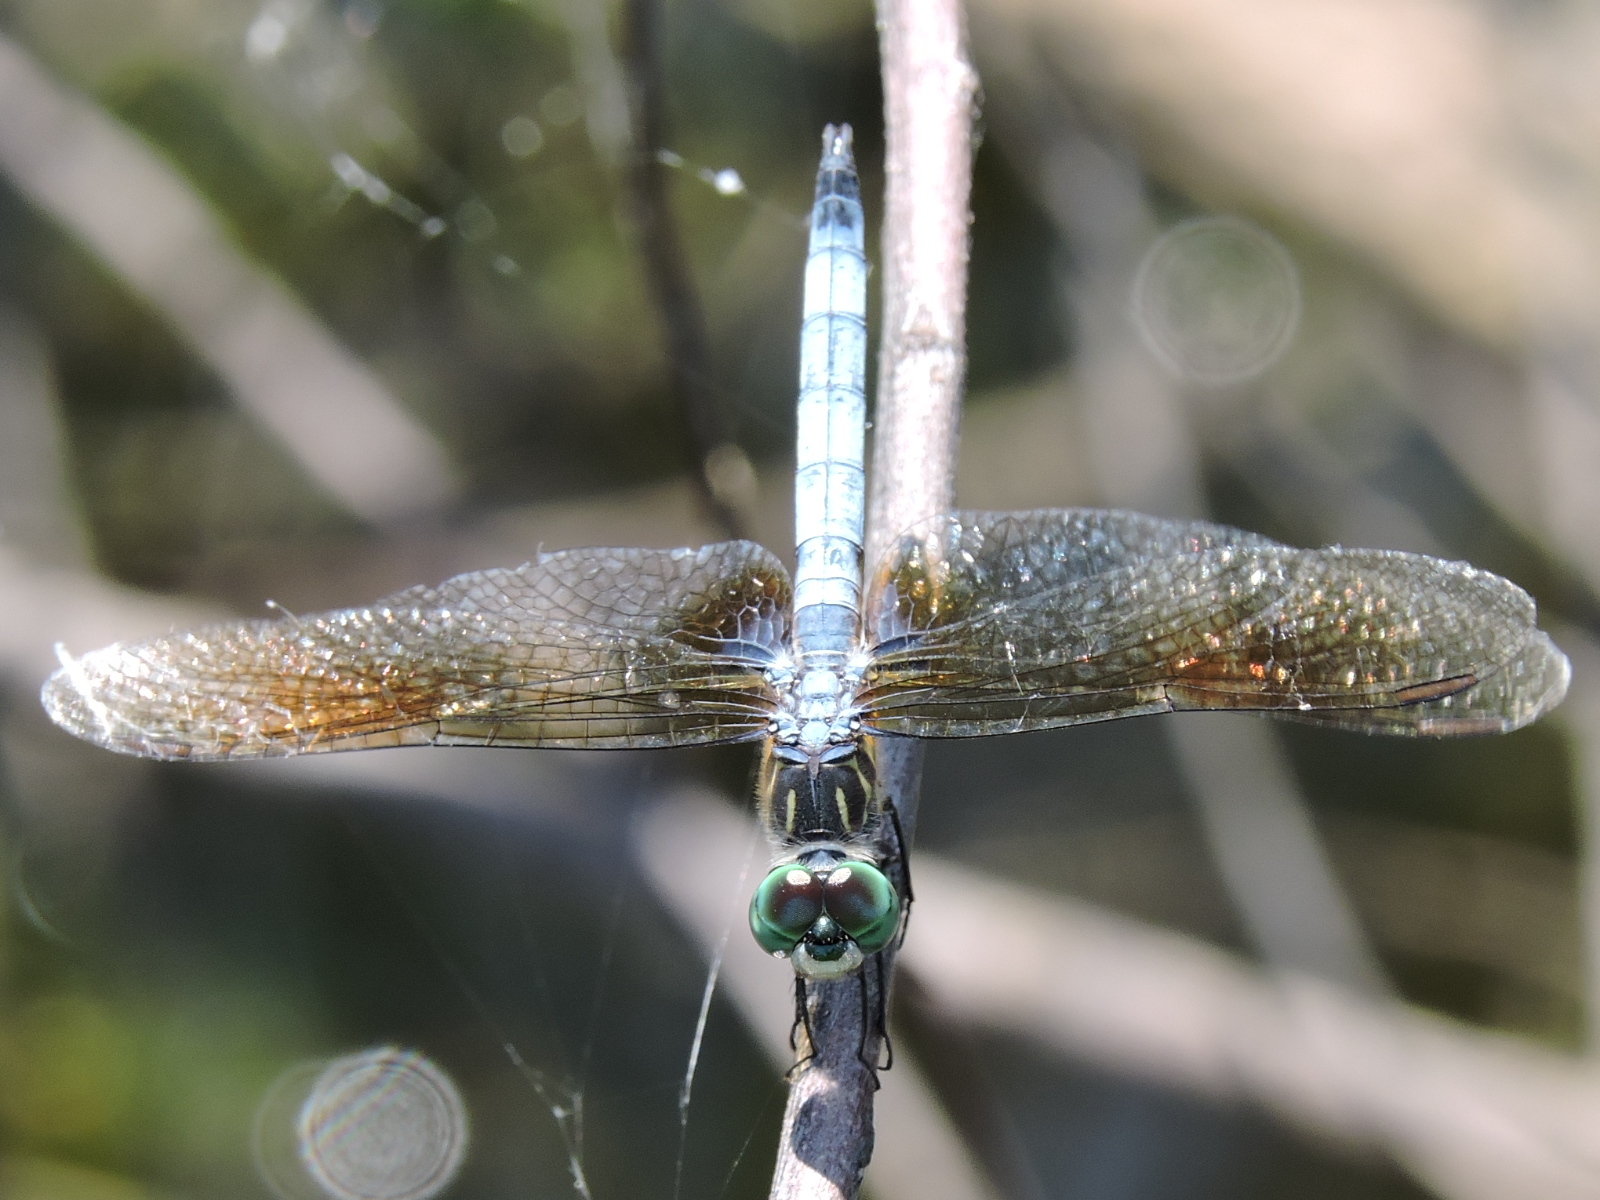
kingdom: Animalia
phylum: Arthropoda
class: Insecta
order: Odonata
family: Libellulidae
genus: Pachydiplax
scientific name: Pachydiplax longipennis
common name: Blue dasher
